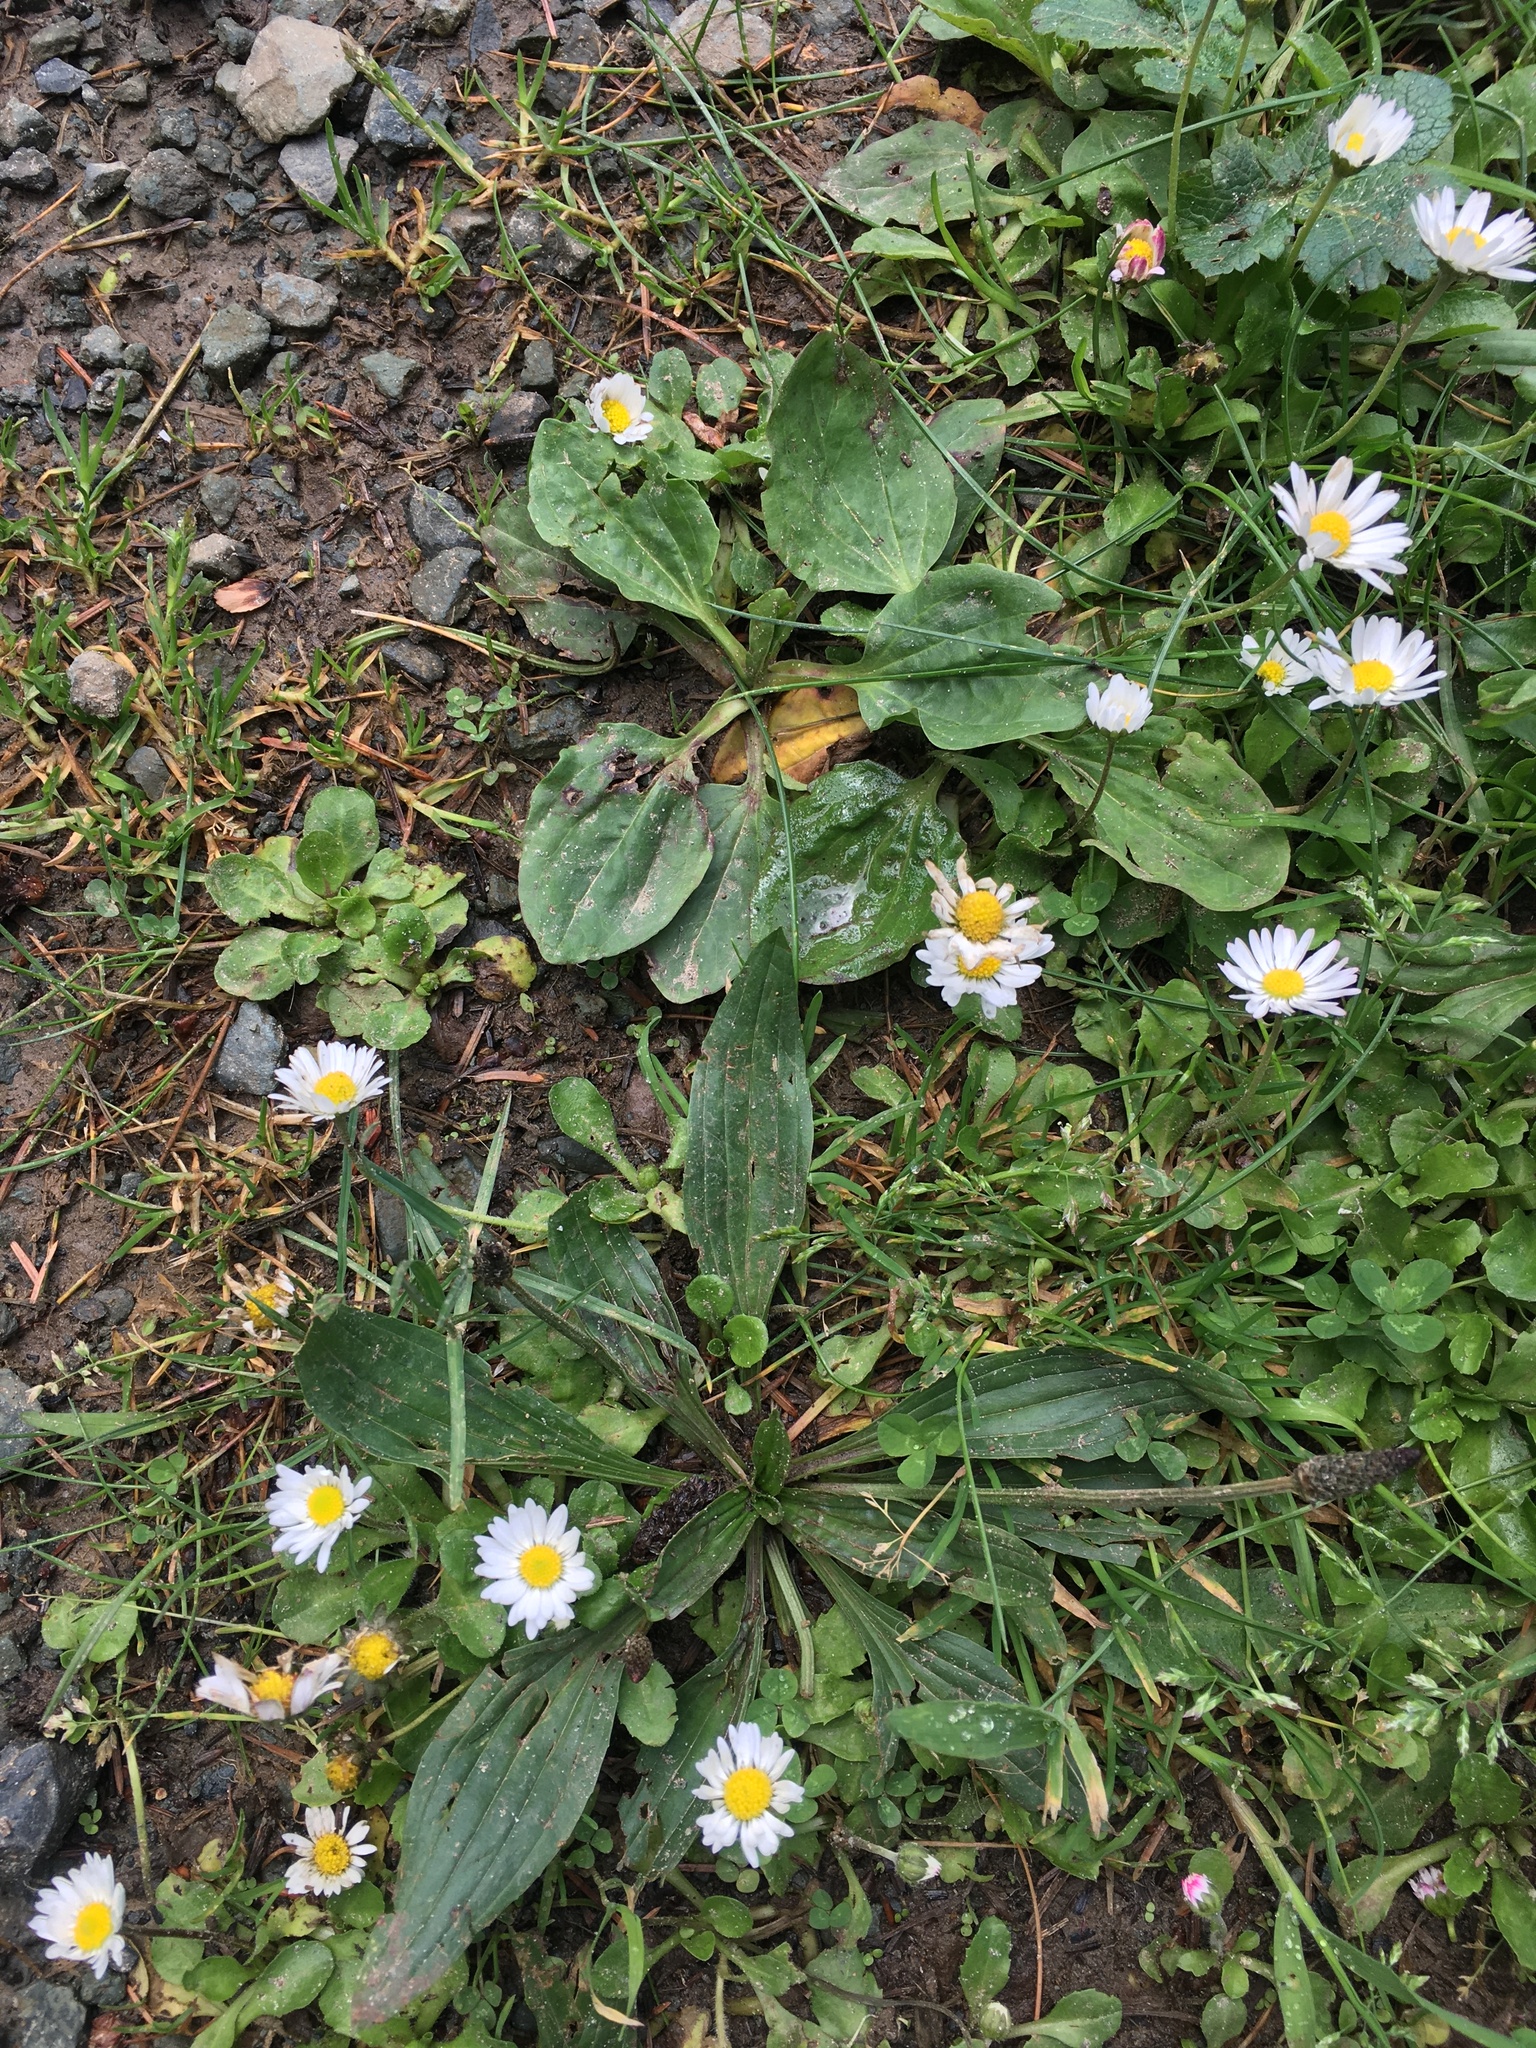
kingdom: Plantae
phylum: Tracheophyta
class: Magnoliopsida
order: Asterales
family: Asteraceae
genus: Bellis
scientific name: Bellis perennis
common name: Lawndaisy
